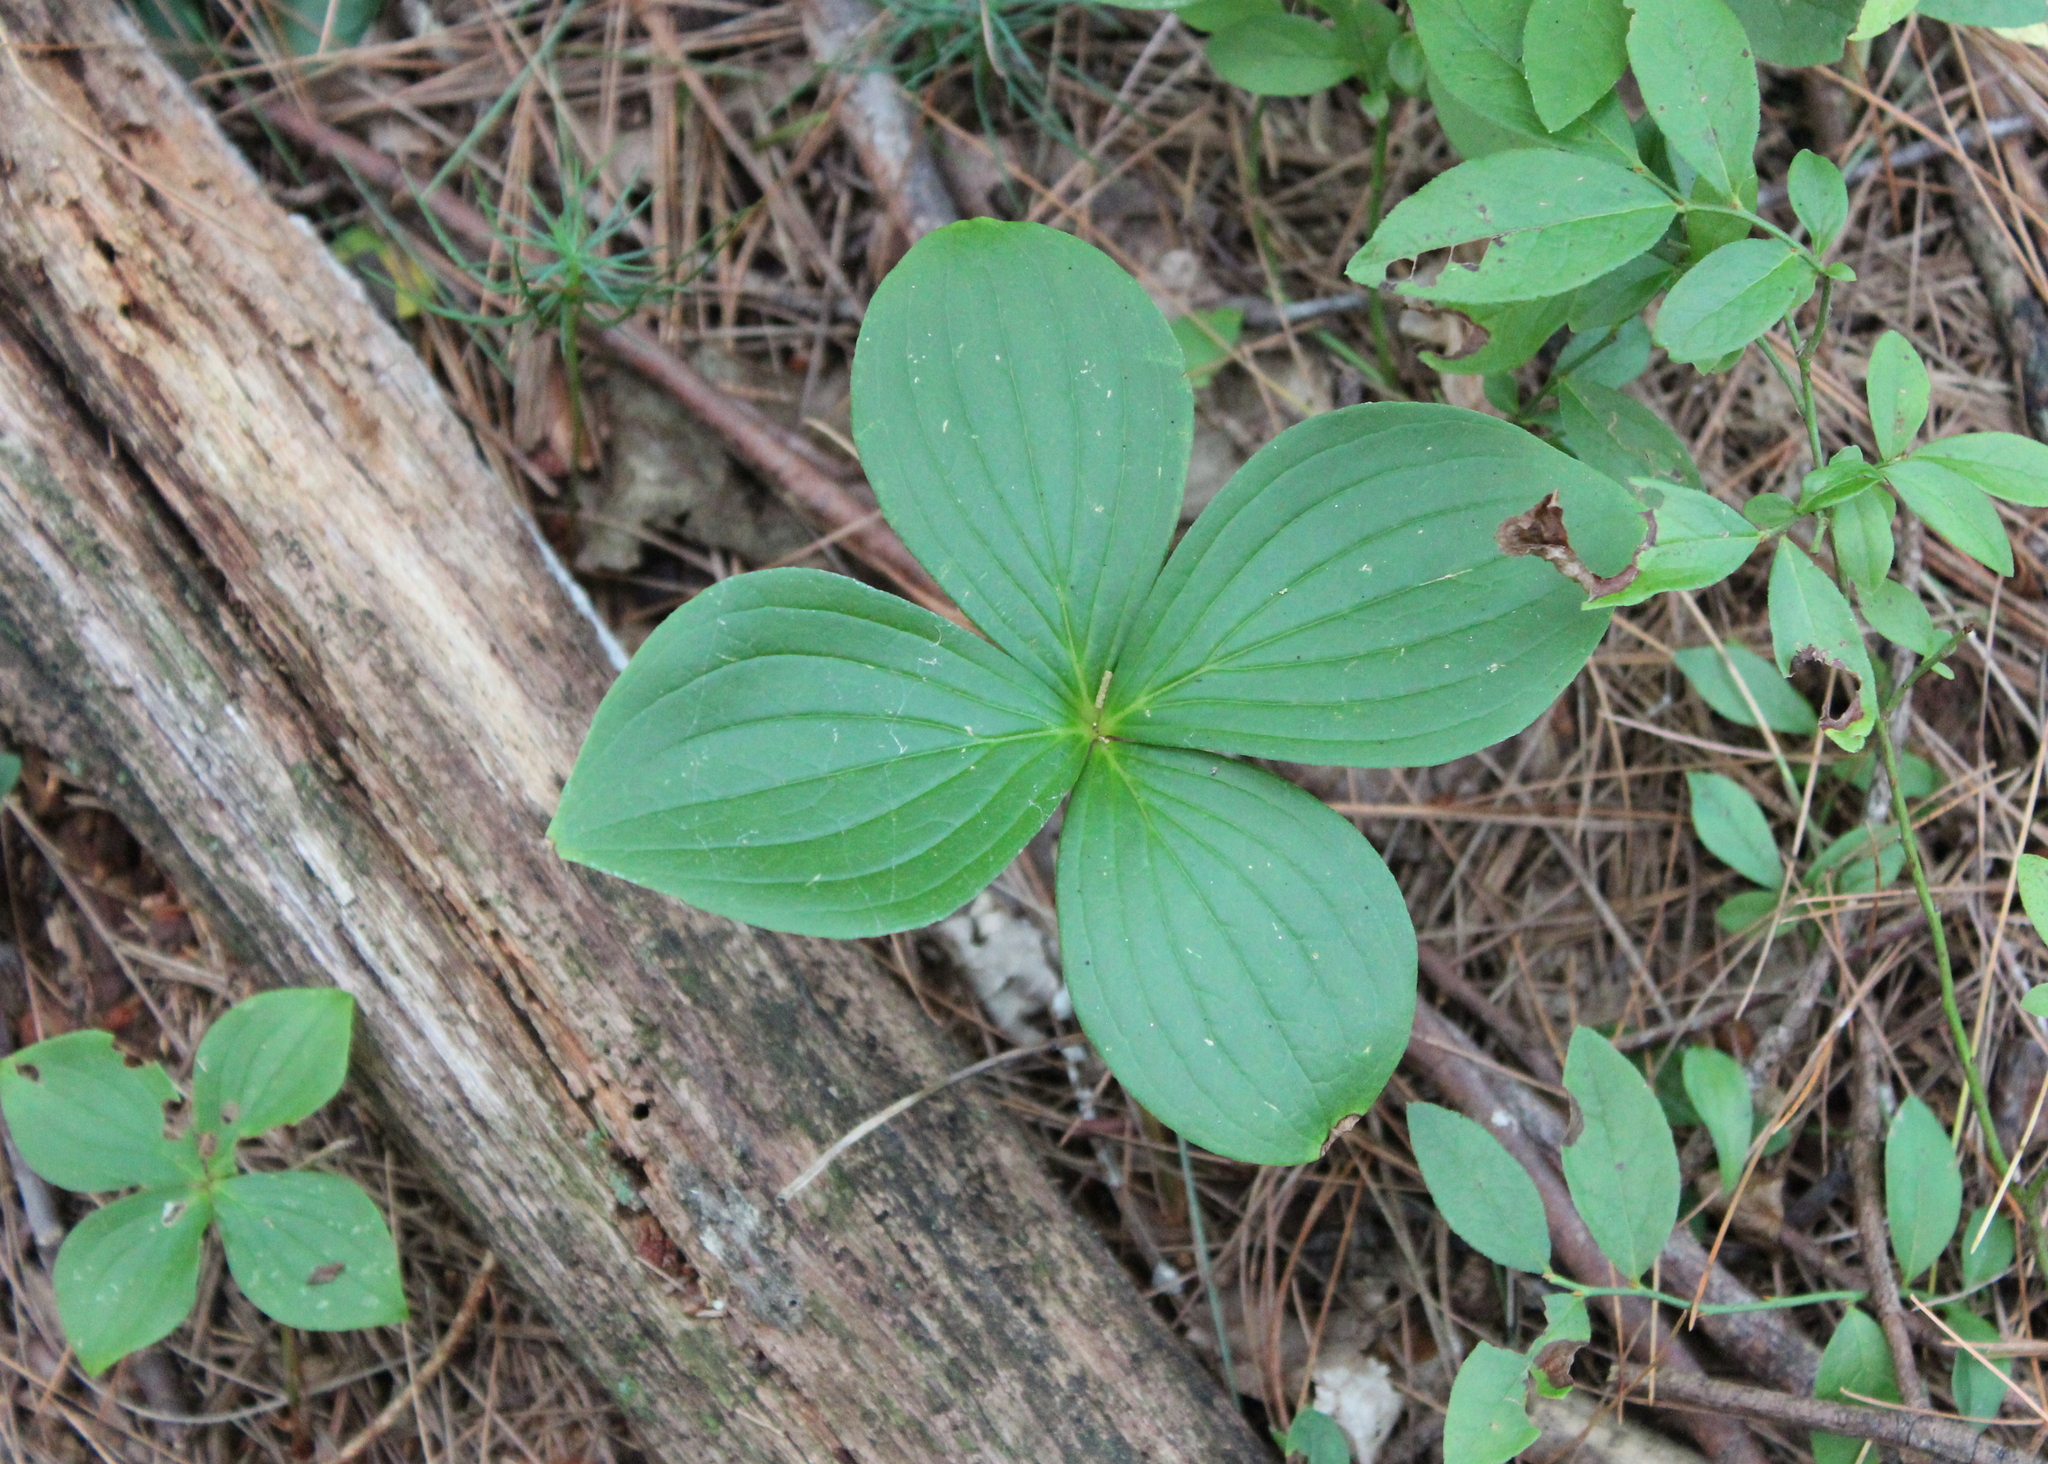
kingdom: Plantae
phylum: Tracheophyta
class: Magnoliopsida
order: Cornales
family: Cornaceae
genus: Cornus
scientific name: Cornus canadensis
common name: Creeping dogwood
